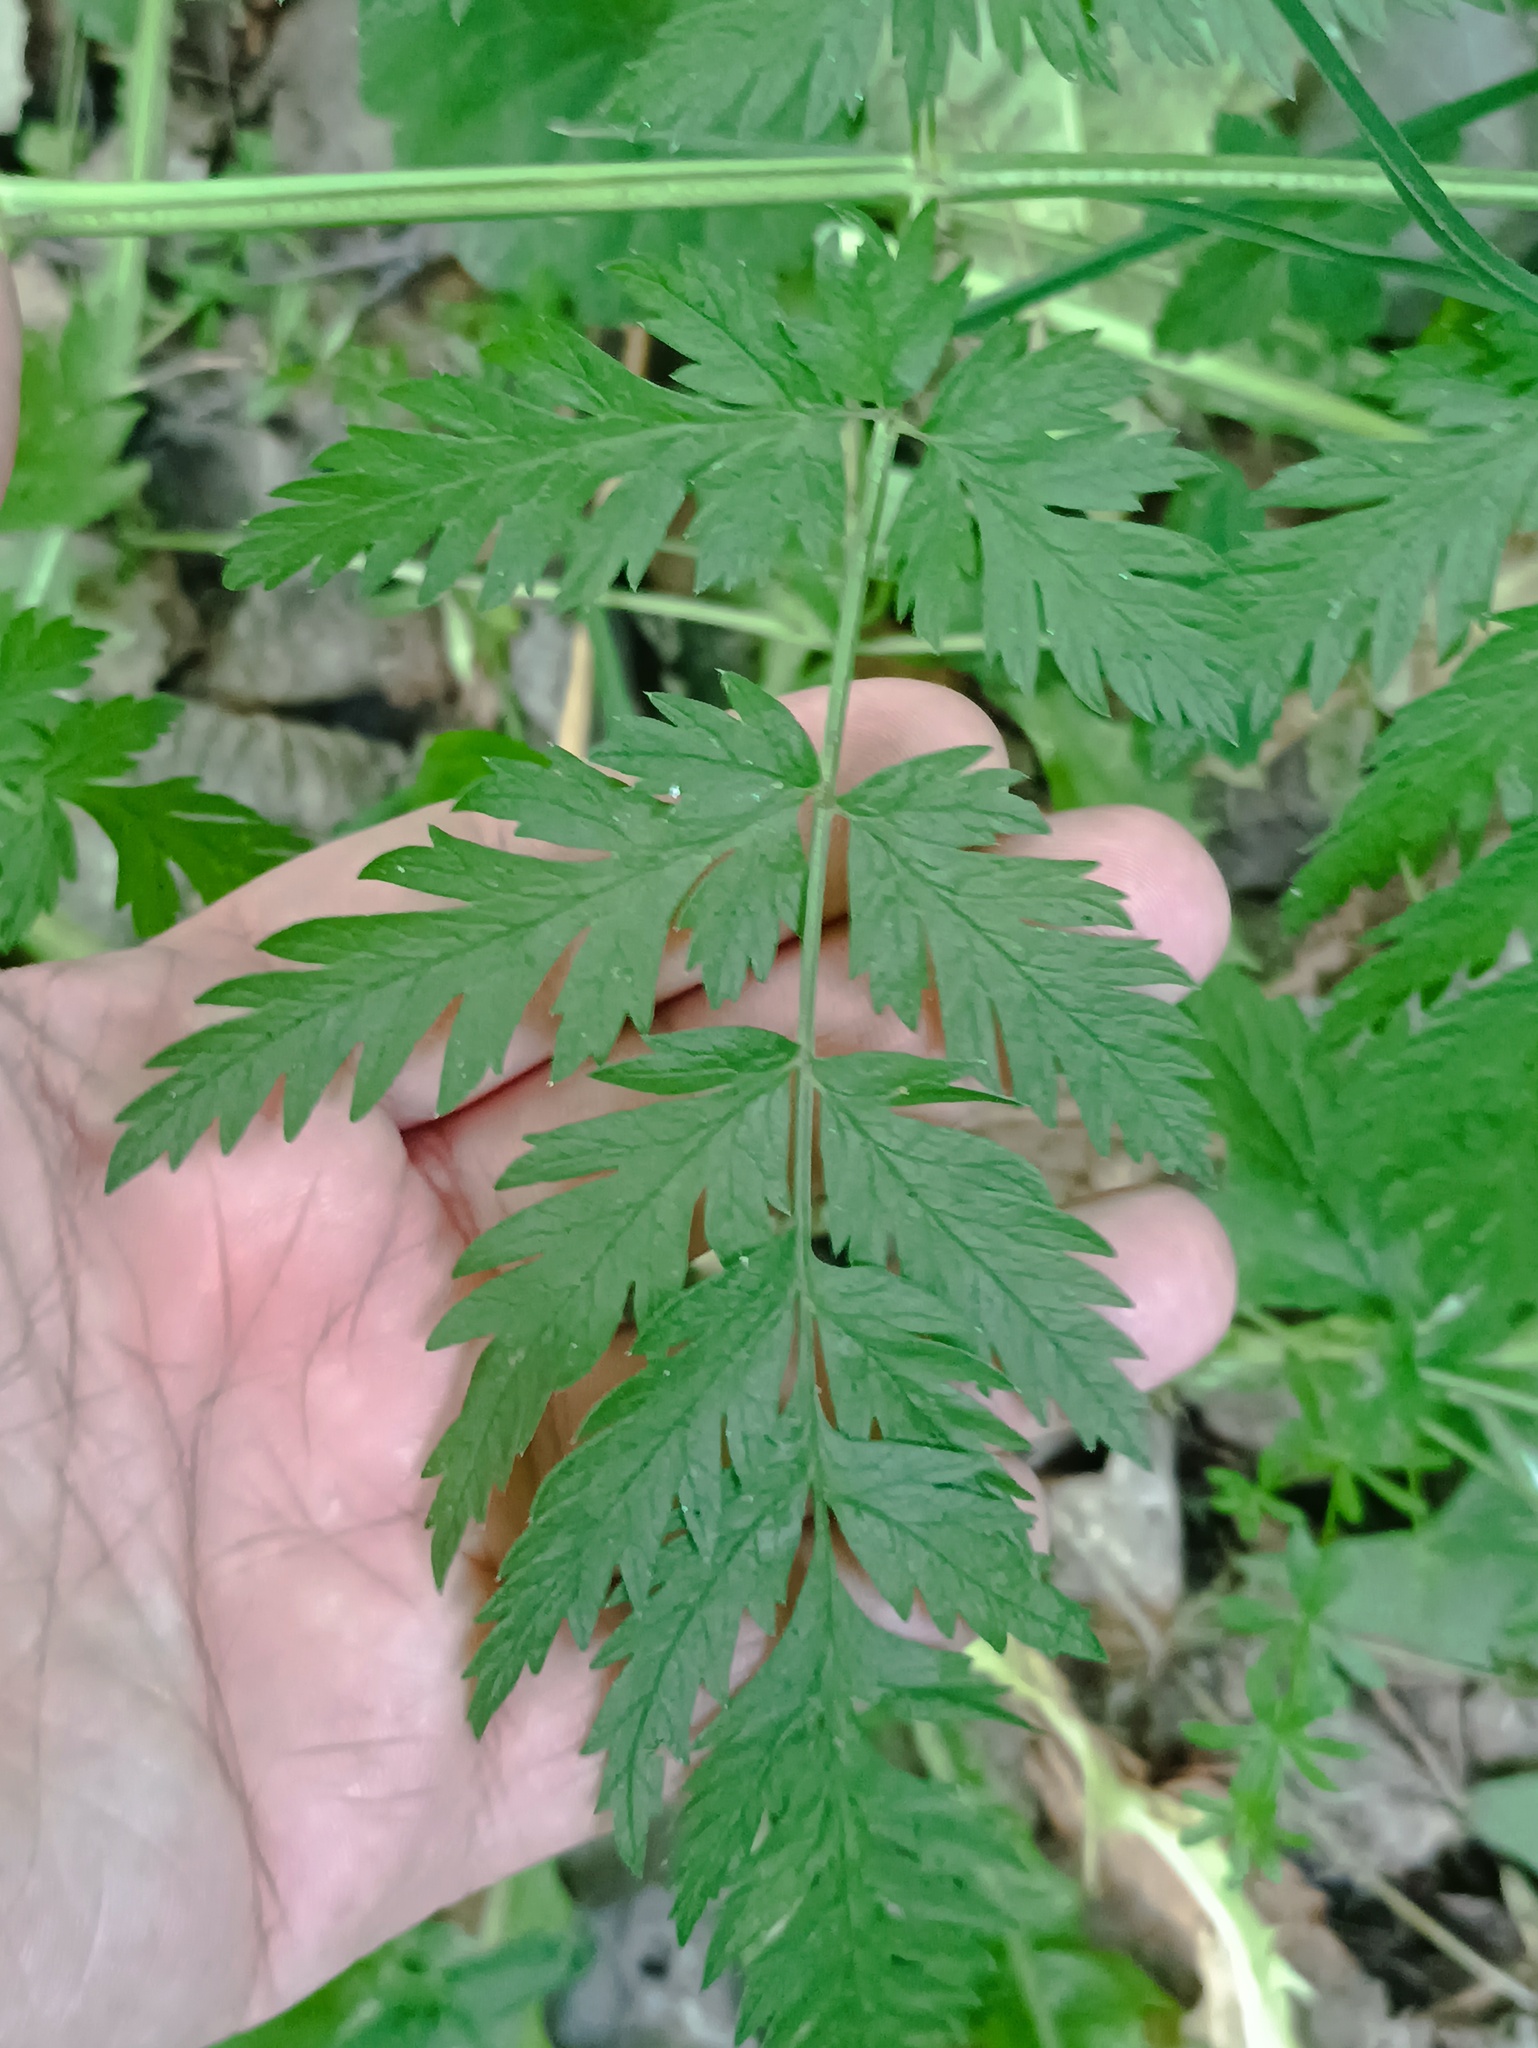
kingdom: Plantae
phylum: Tracheophyta
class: Magnoliopsida
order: Apiales
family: Apiaceae
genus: Anthriscus
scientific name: Anthriscus sylvestris
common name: Cow parsley
